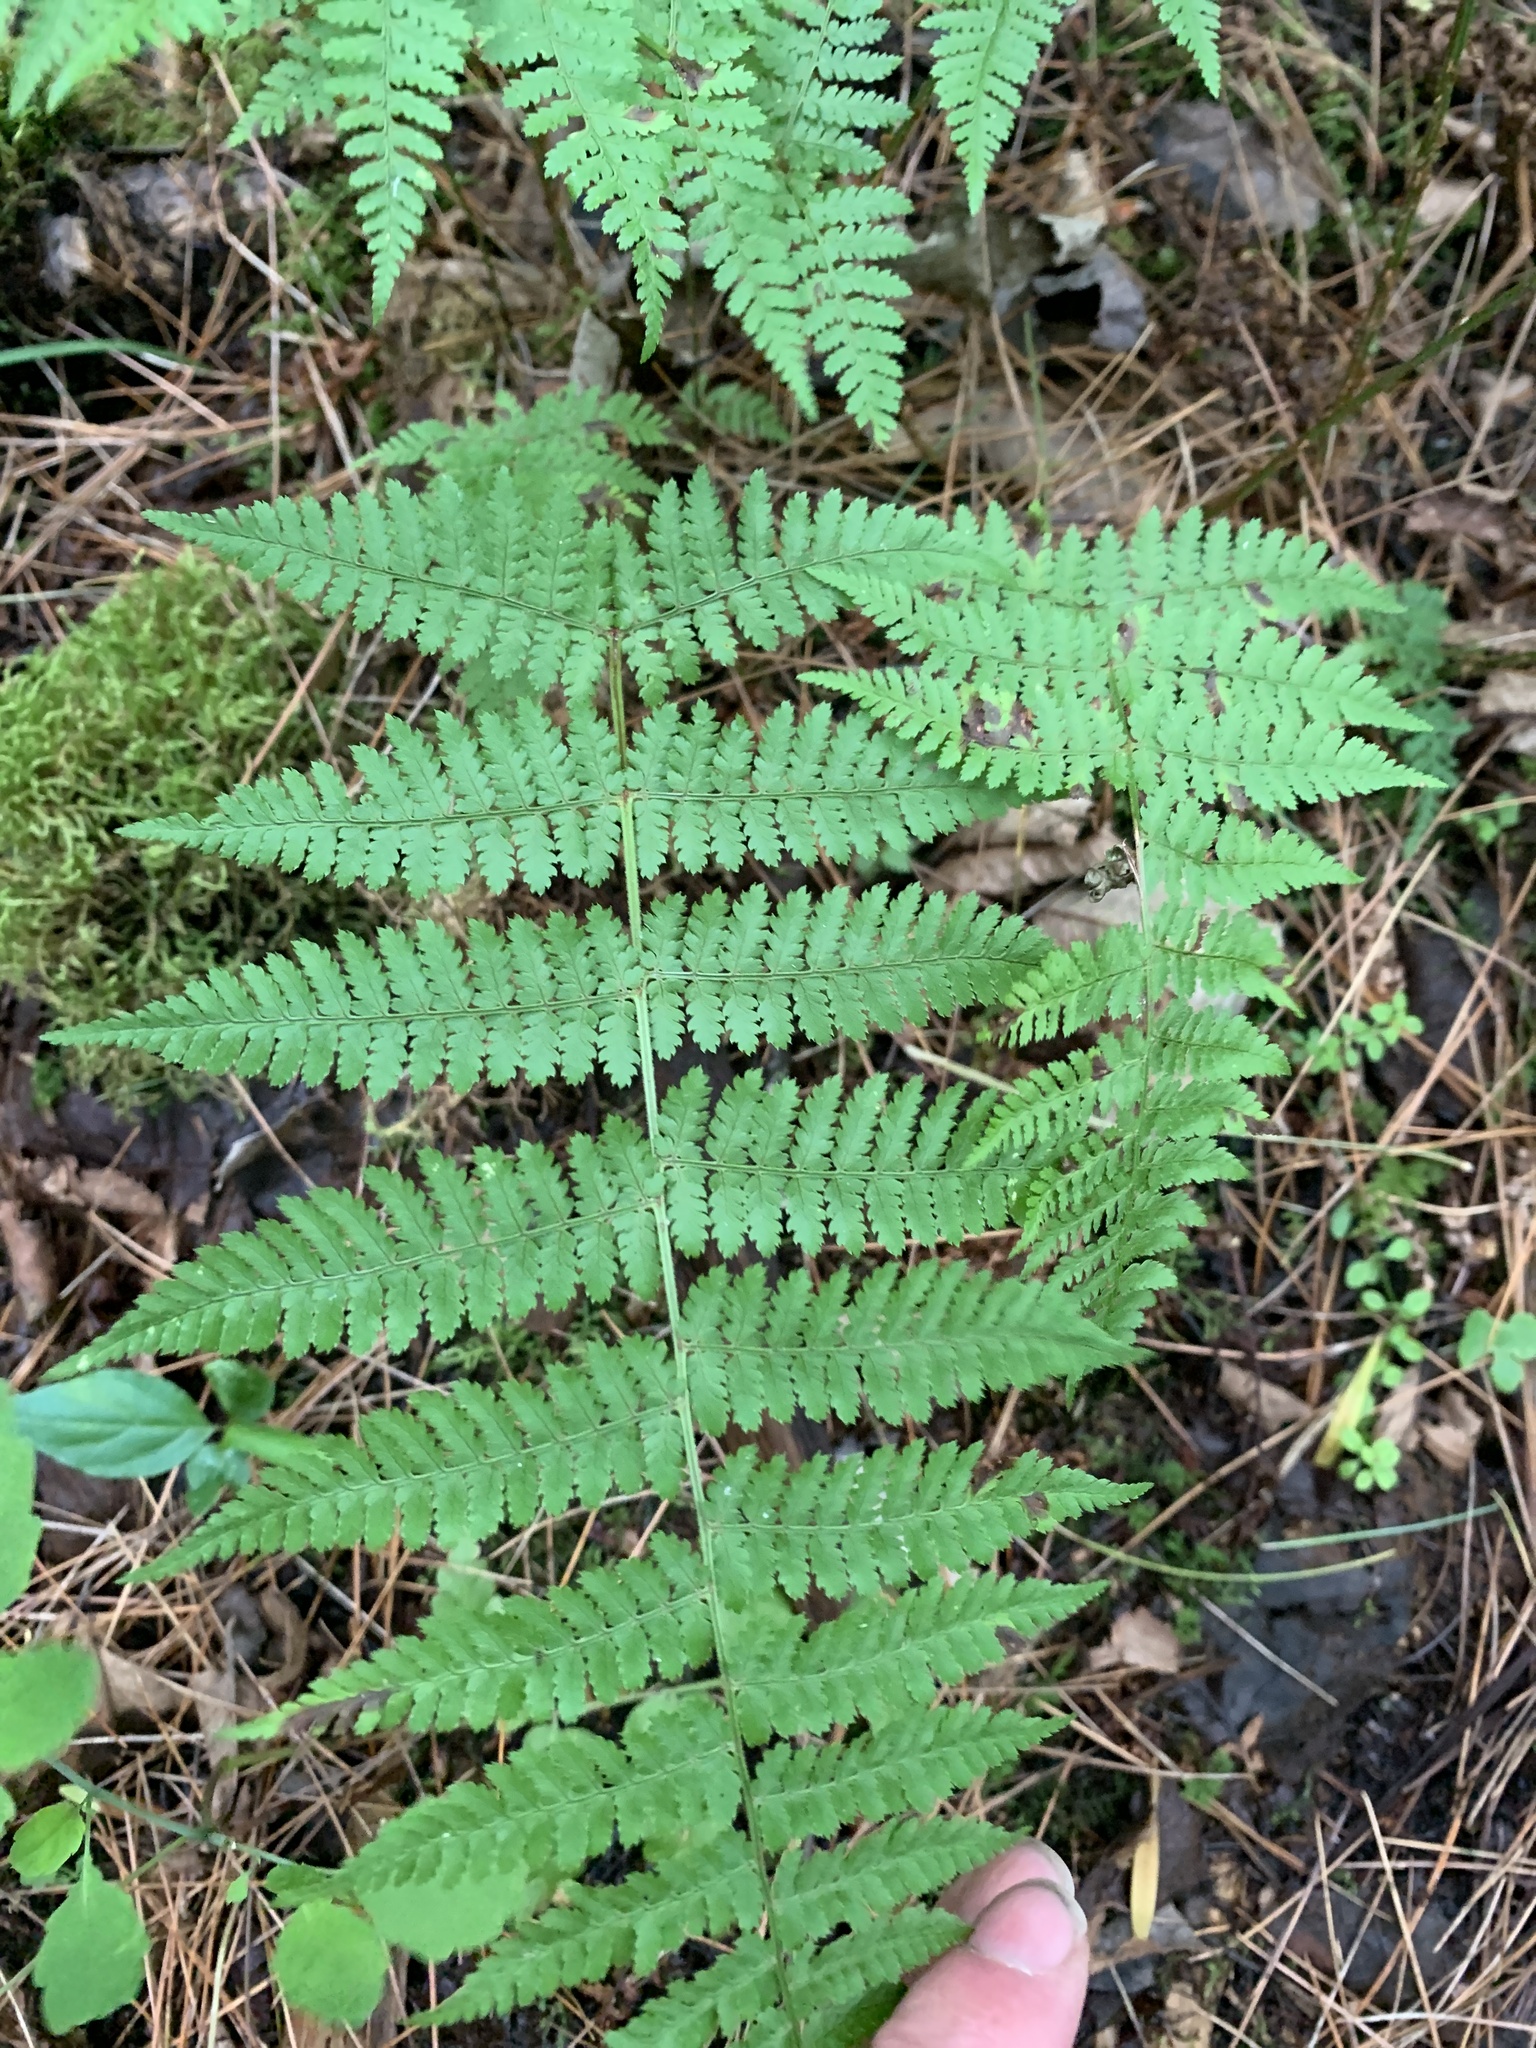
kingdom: Plantae
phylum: Tracheophyta
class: Polypodiopsida
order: Polypodiales
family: Dryopteridaceae
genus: Dryopteris
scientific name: Dryopteris intermedia
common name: Evergreen wood fern
